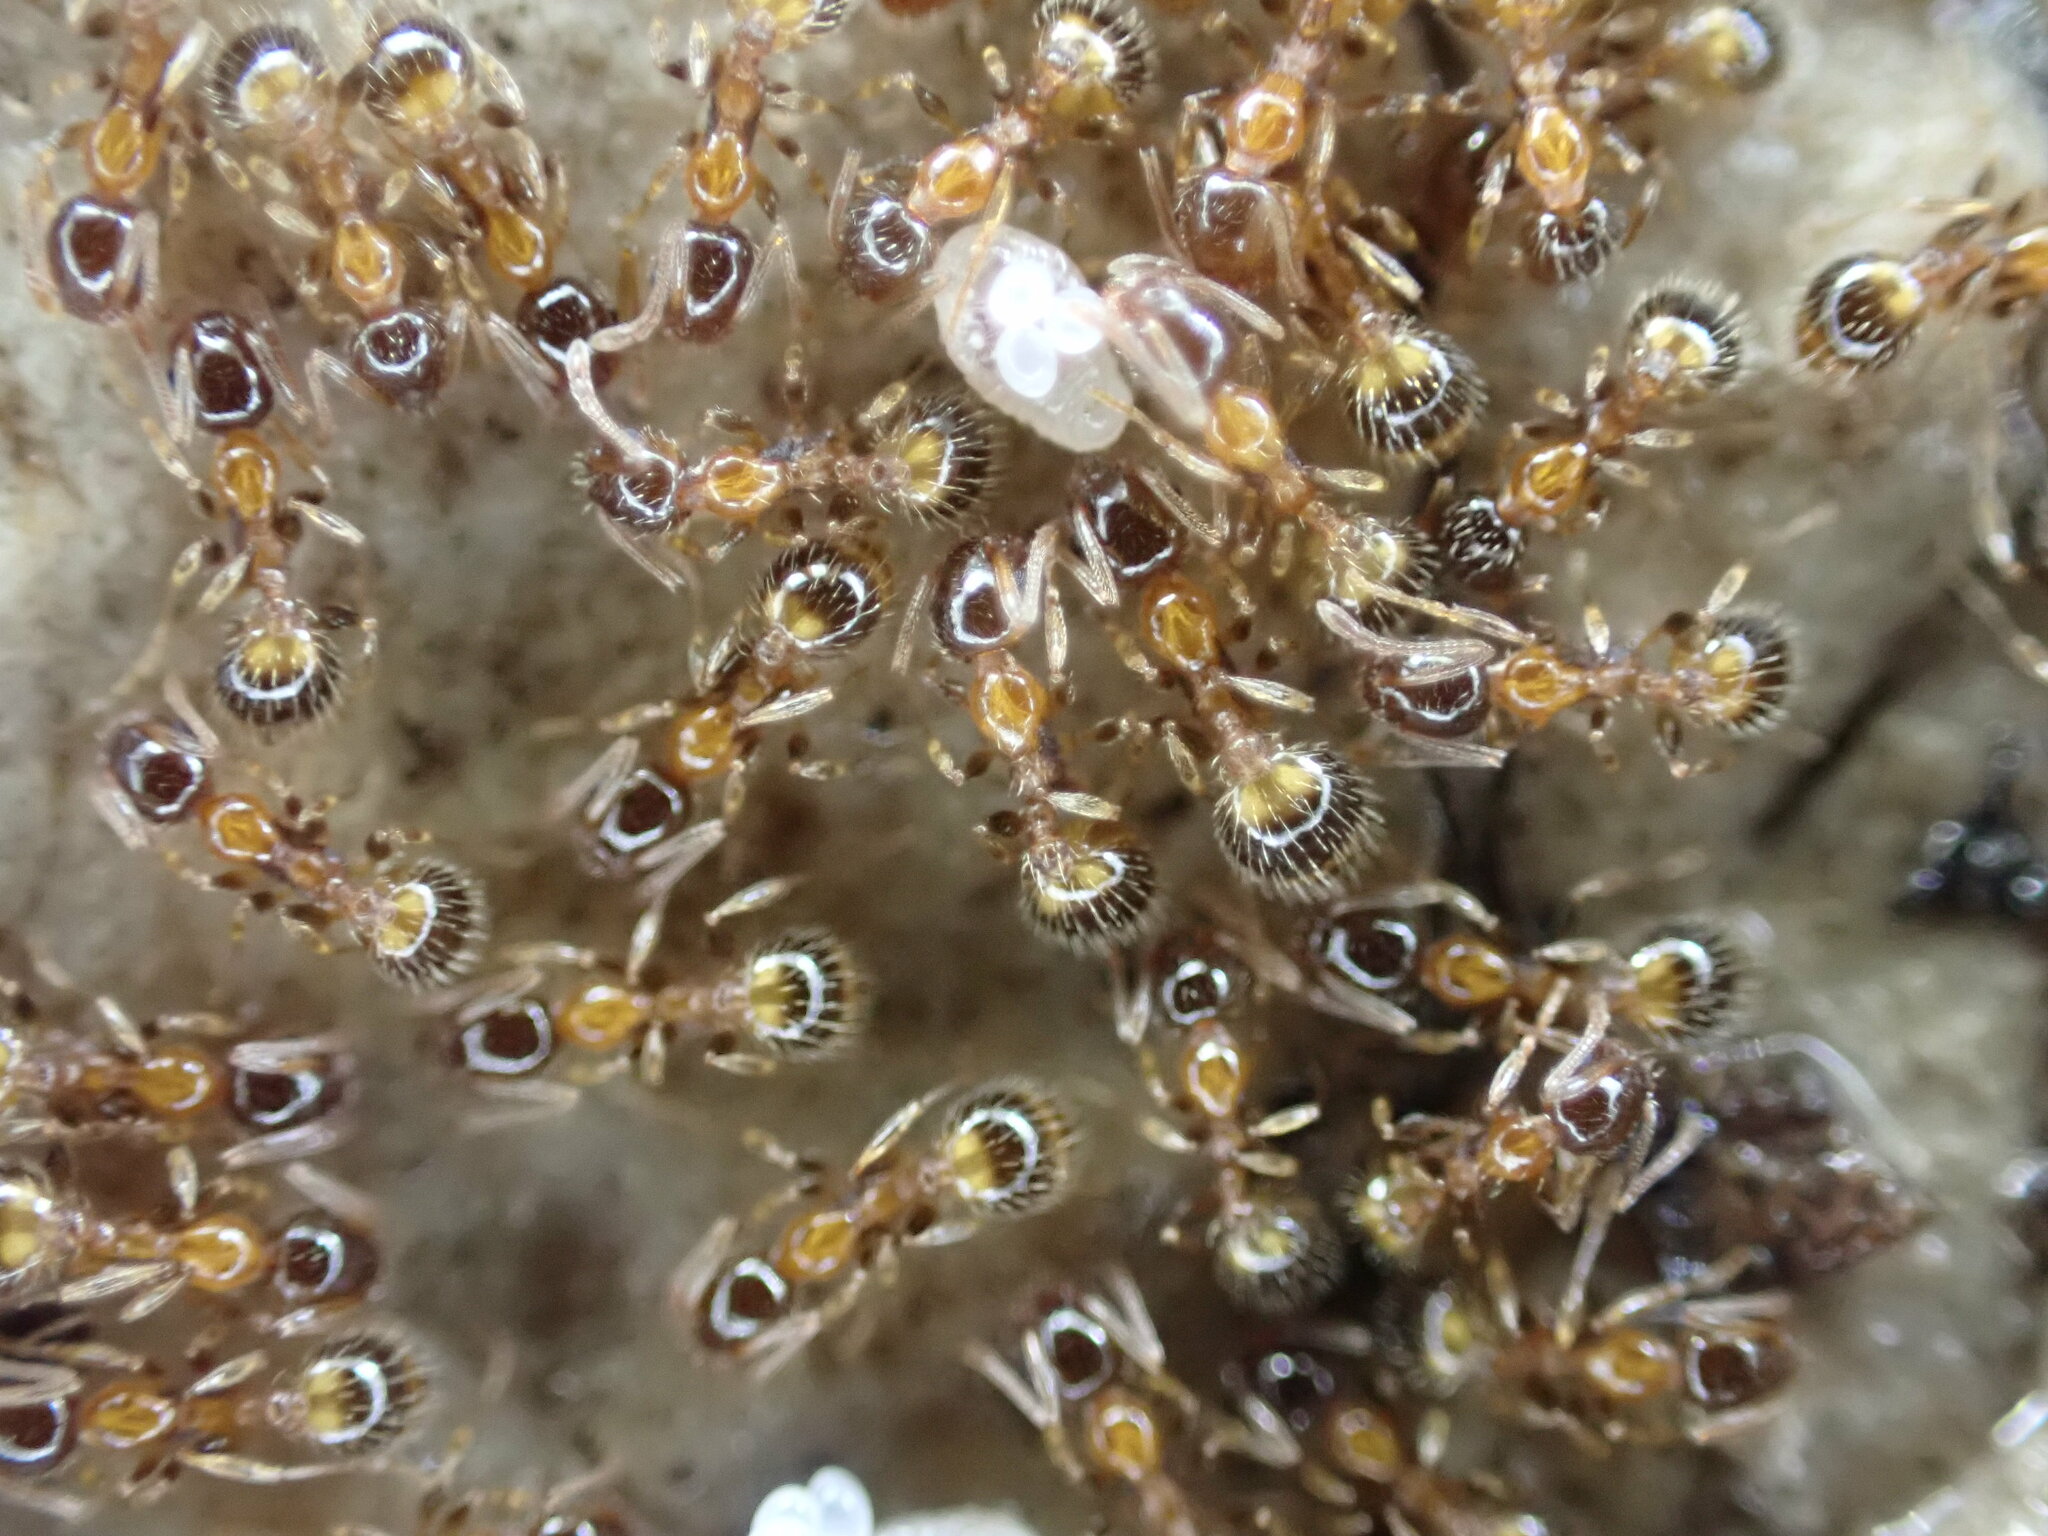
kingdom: Animalia
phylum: Arthropoda
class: Insecta
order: Hymenoptera
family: Formicidae
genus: Pheidole
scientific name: Pheidole pallidula
